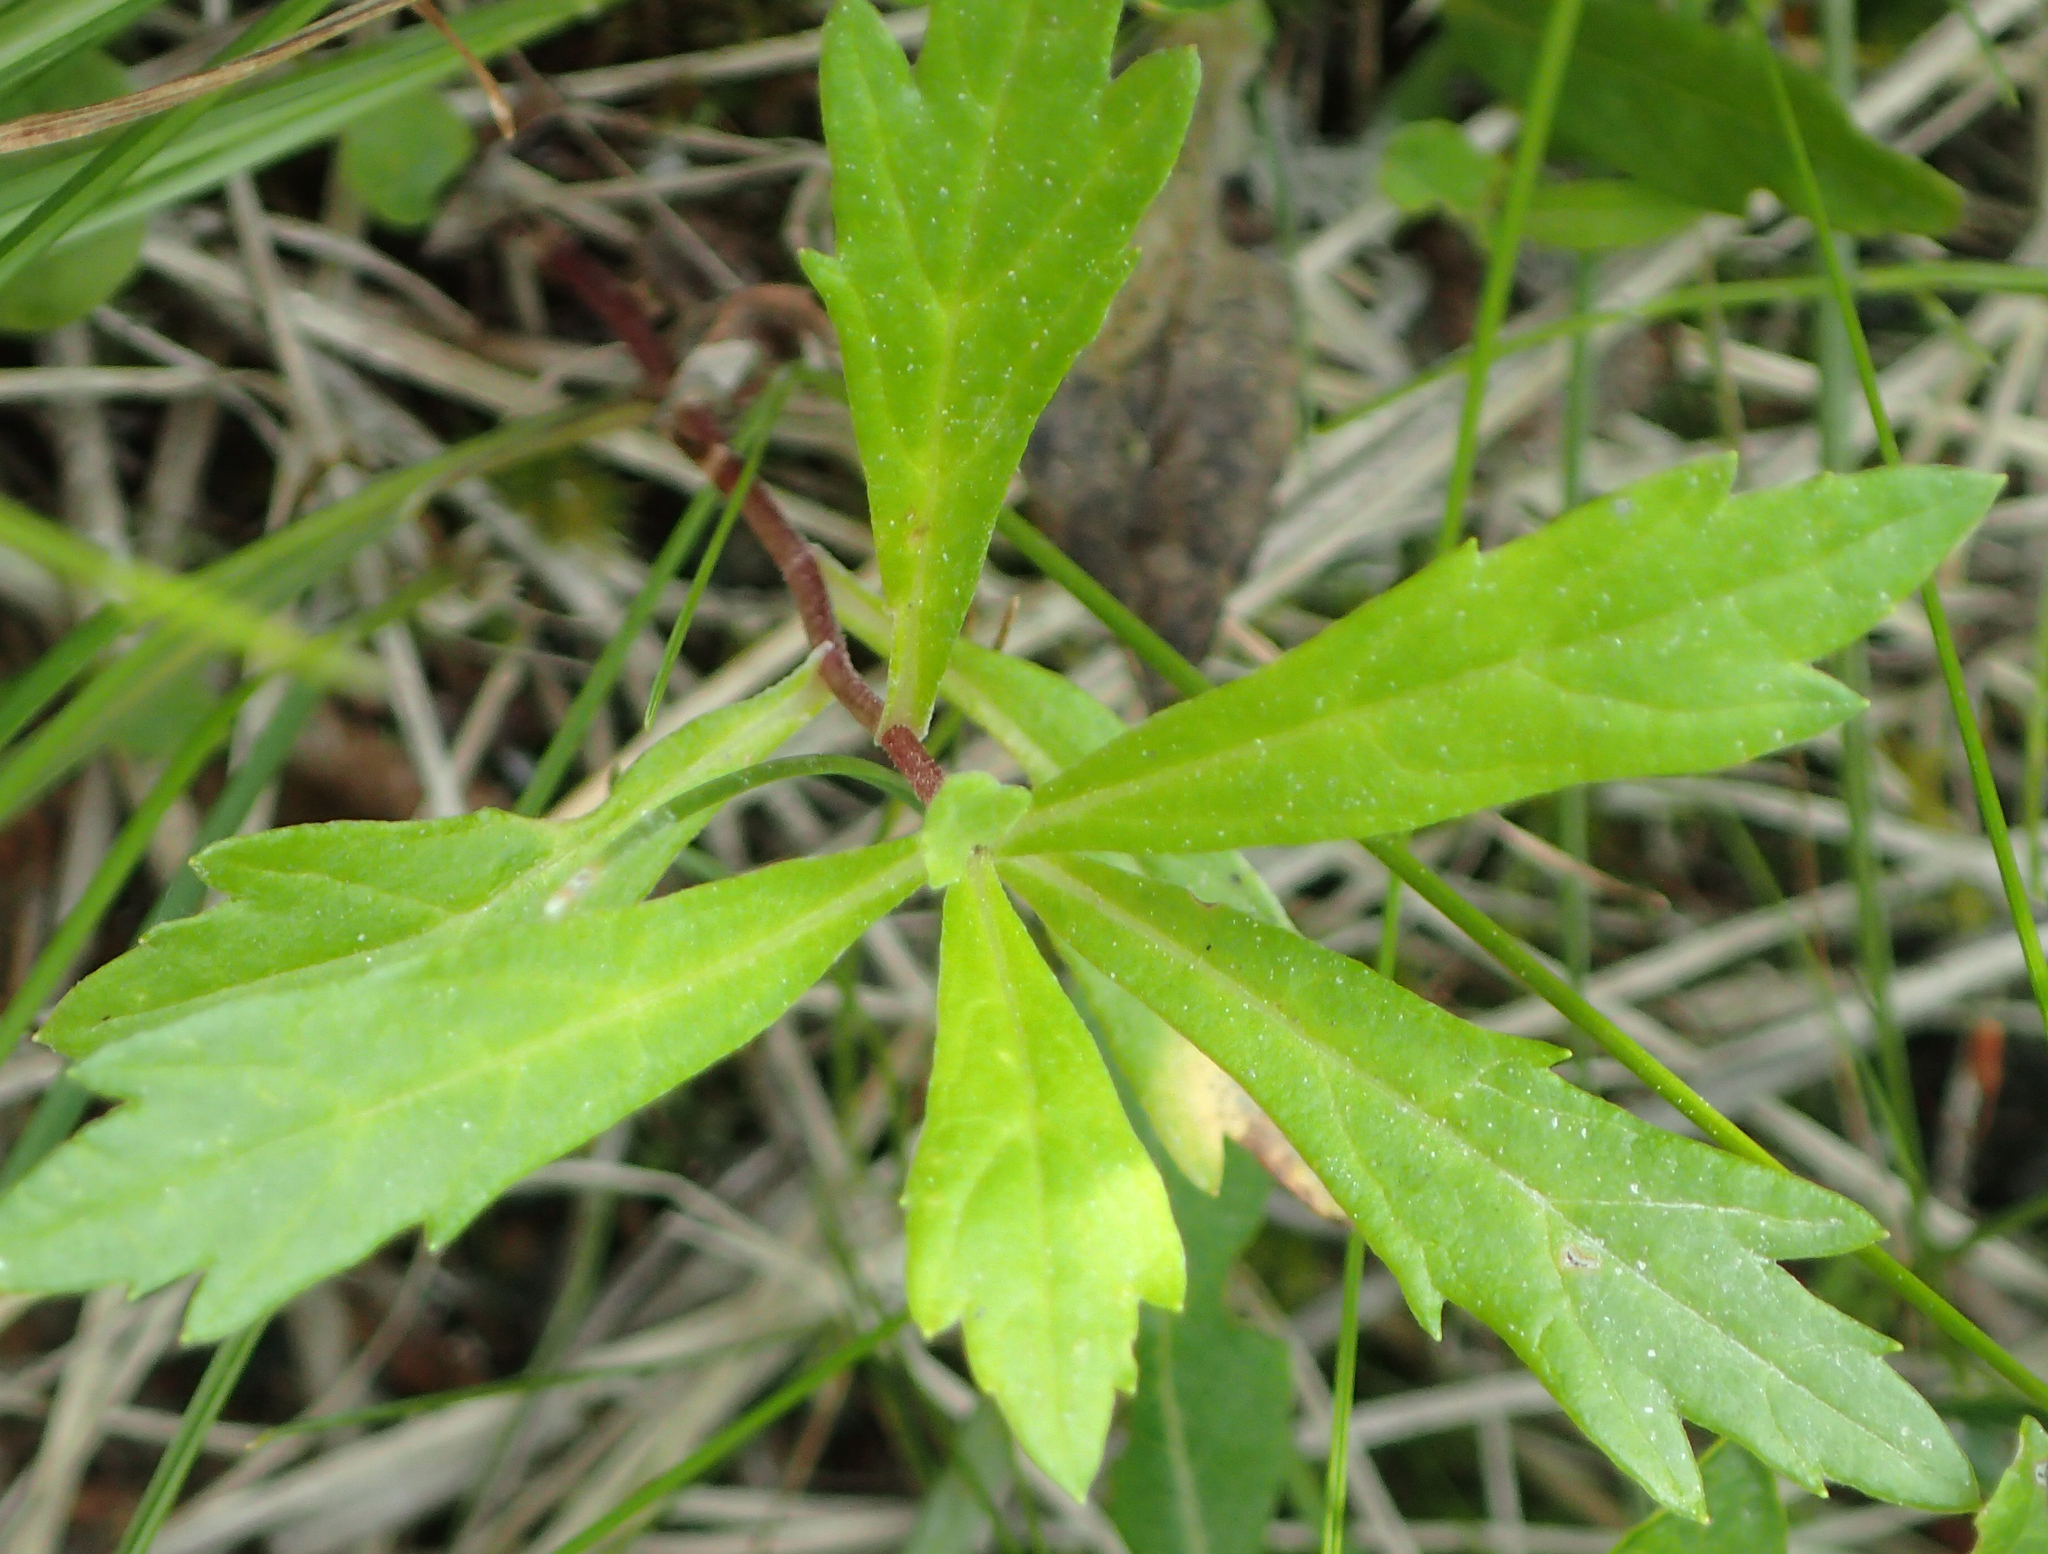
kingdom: Plantae
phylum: Tracheophyta
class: Magnoliopsida
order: Asterales
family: Asteraceae
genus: Artemisia
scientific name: Artemisia tilesii
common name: Aleutian mugwort
